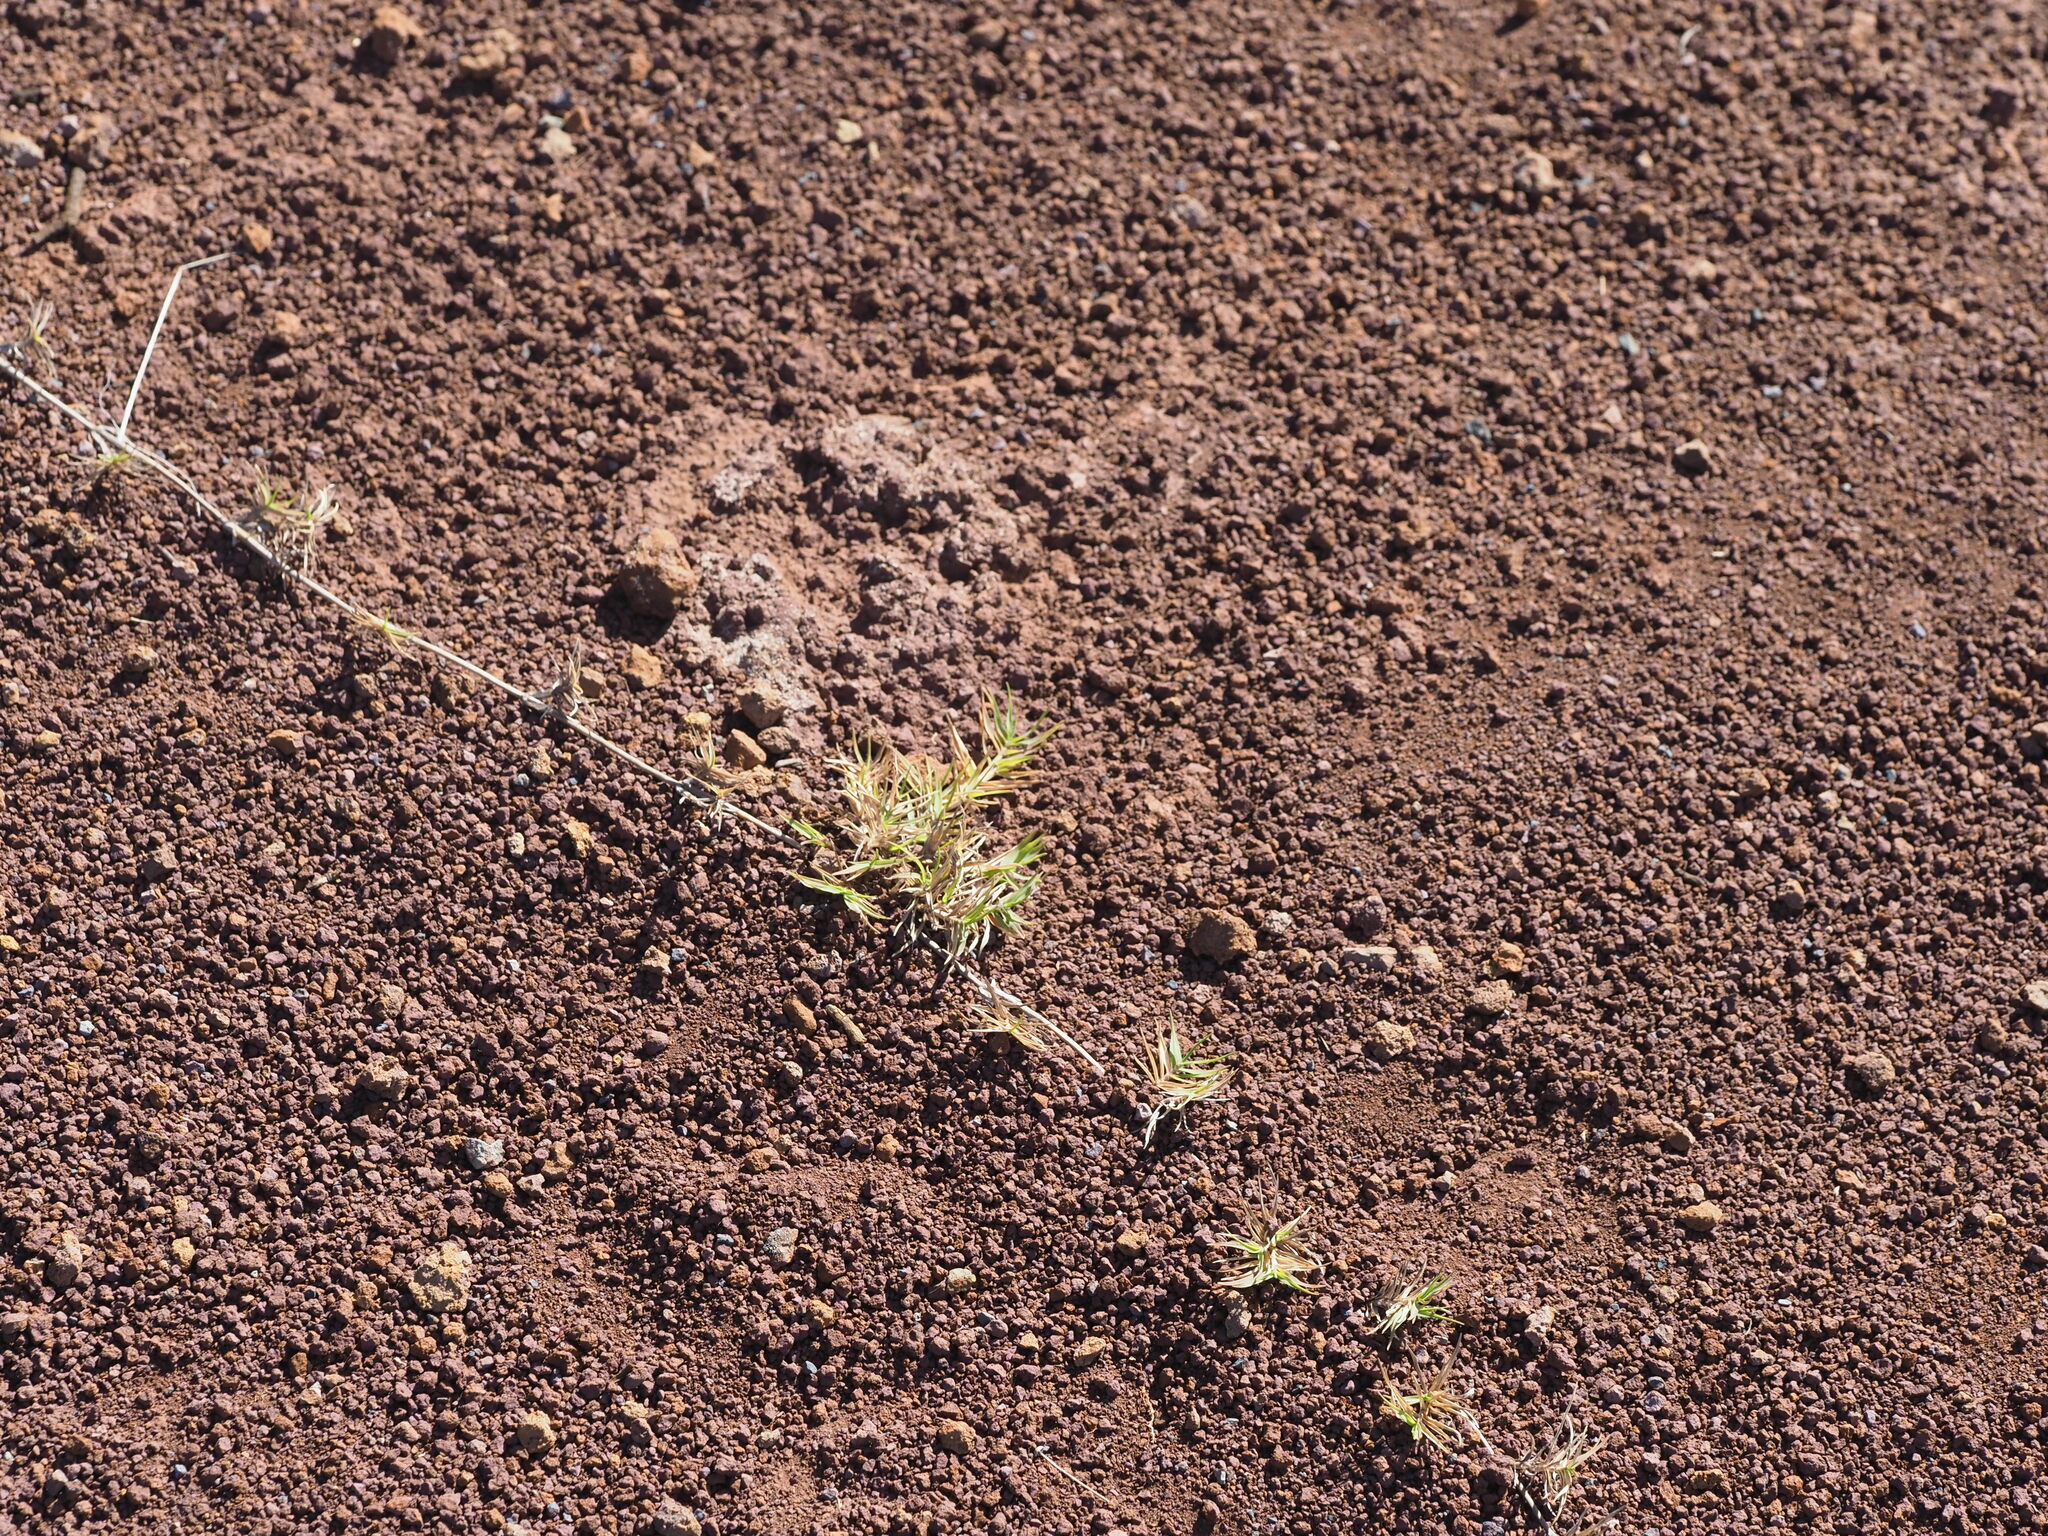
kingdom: Plantae
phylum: Tracheophyta
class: Liliopsida
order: Poales
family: Poaceae
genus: Cynodon
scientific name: Cynodon dactylon
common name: Bermuda grass
